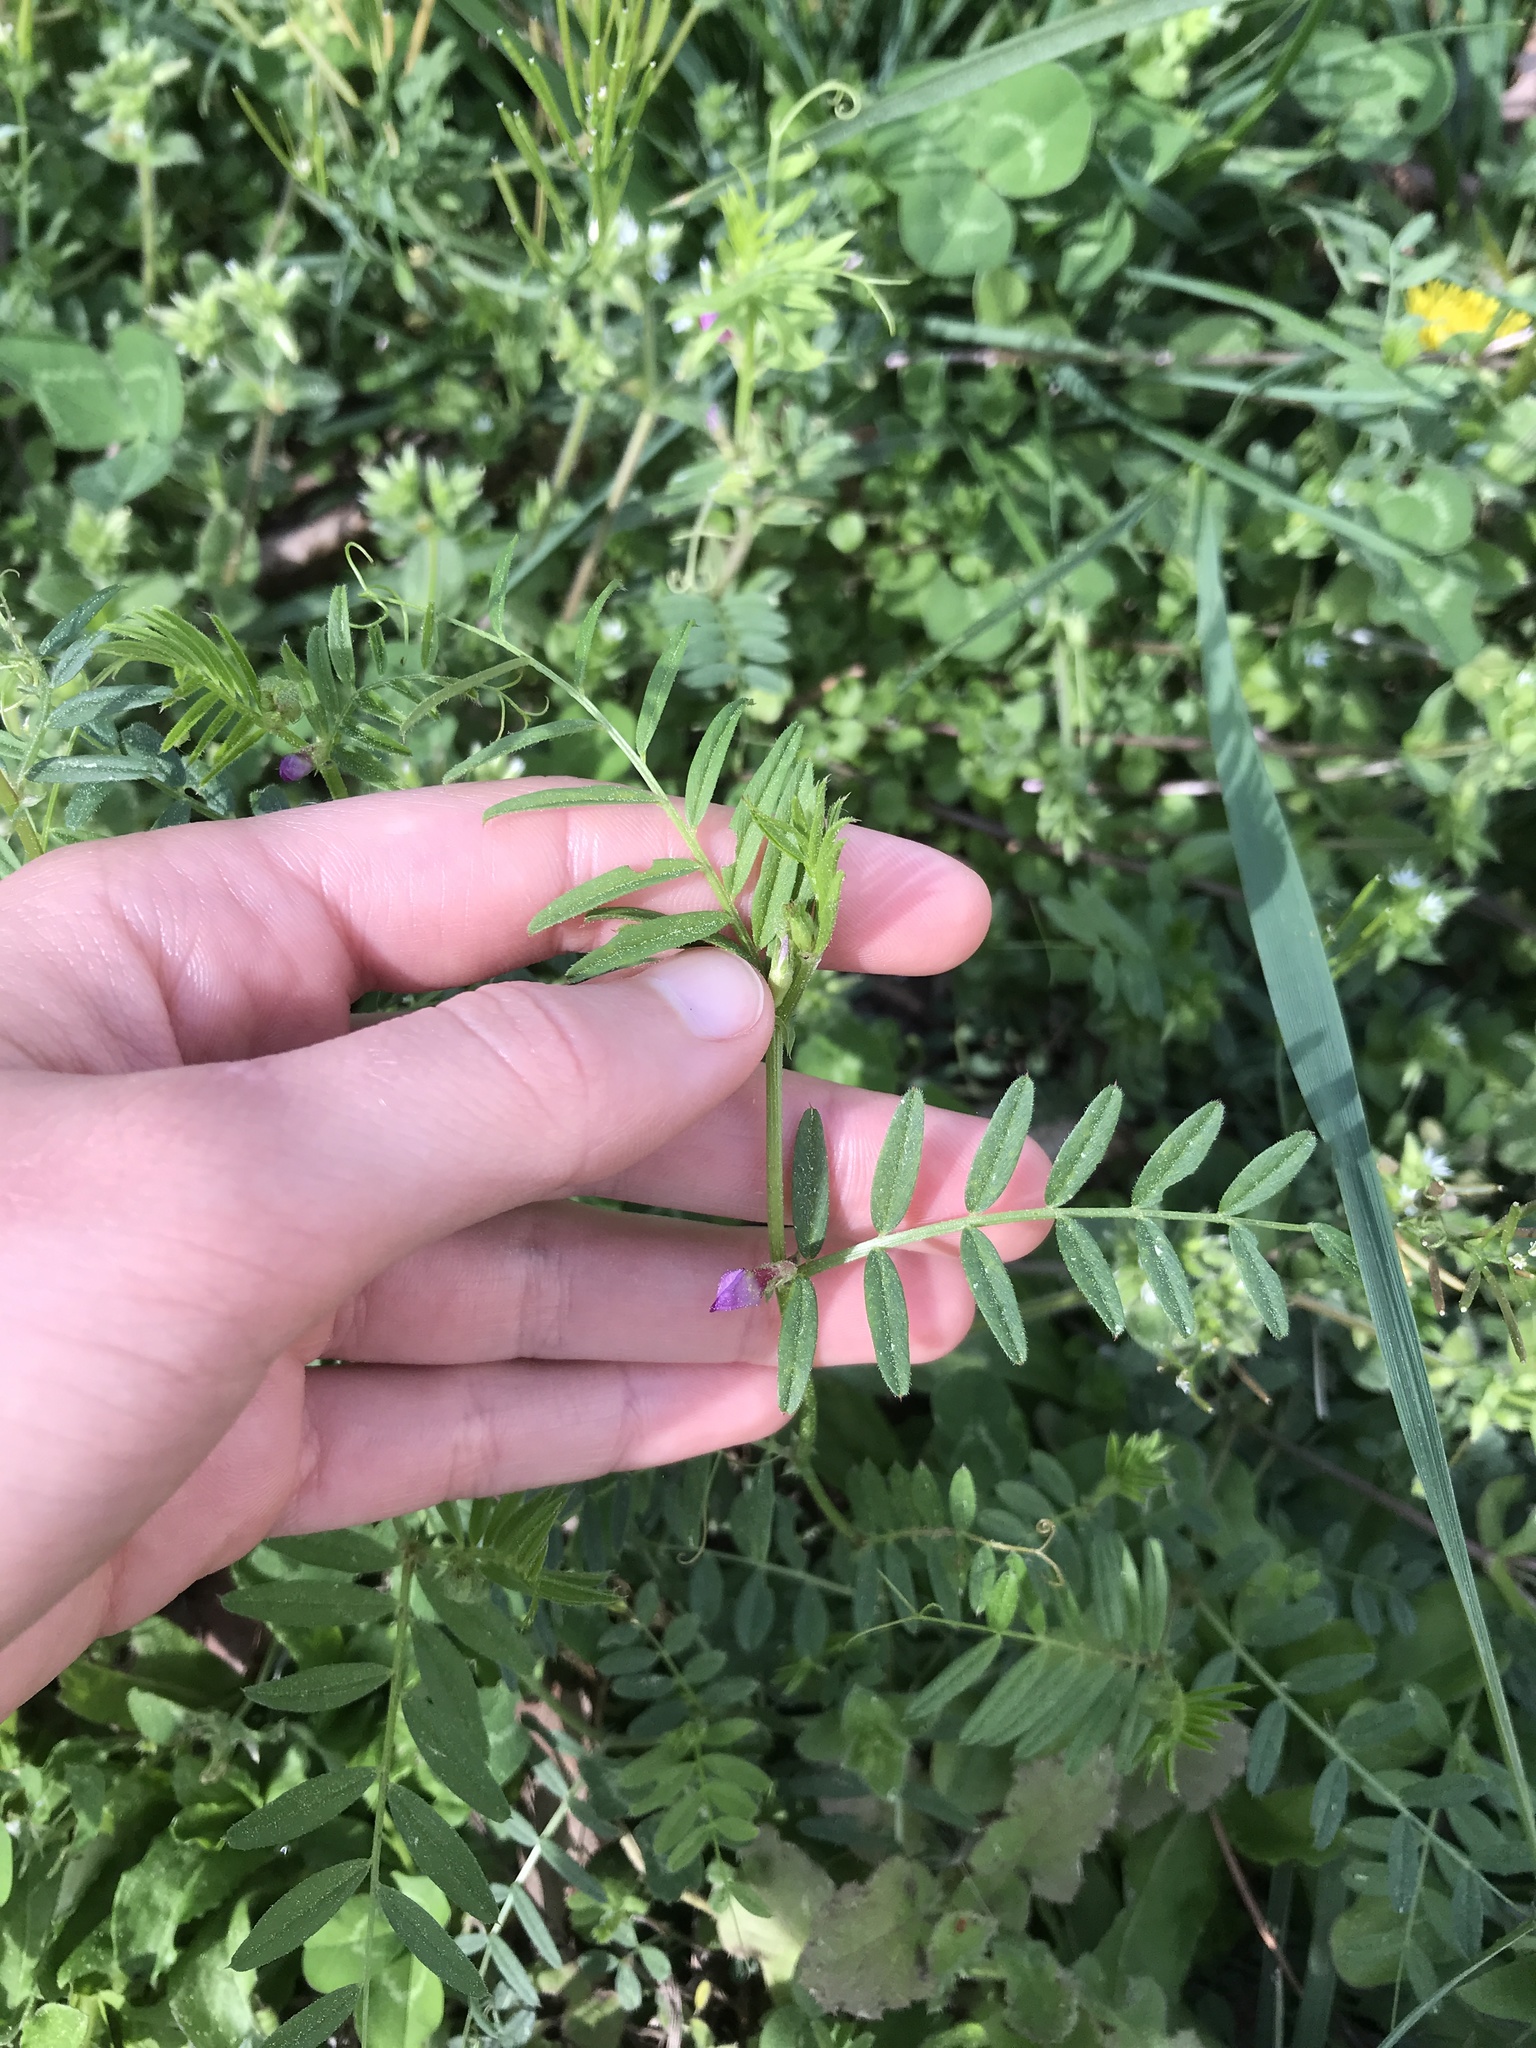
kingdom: Plantae
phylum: Tracheophyta
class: Magnoliopsida
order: Fabales
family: Fabaceae
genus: Vicia
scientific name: Vicia sativa
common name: Garden vetch
